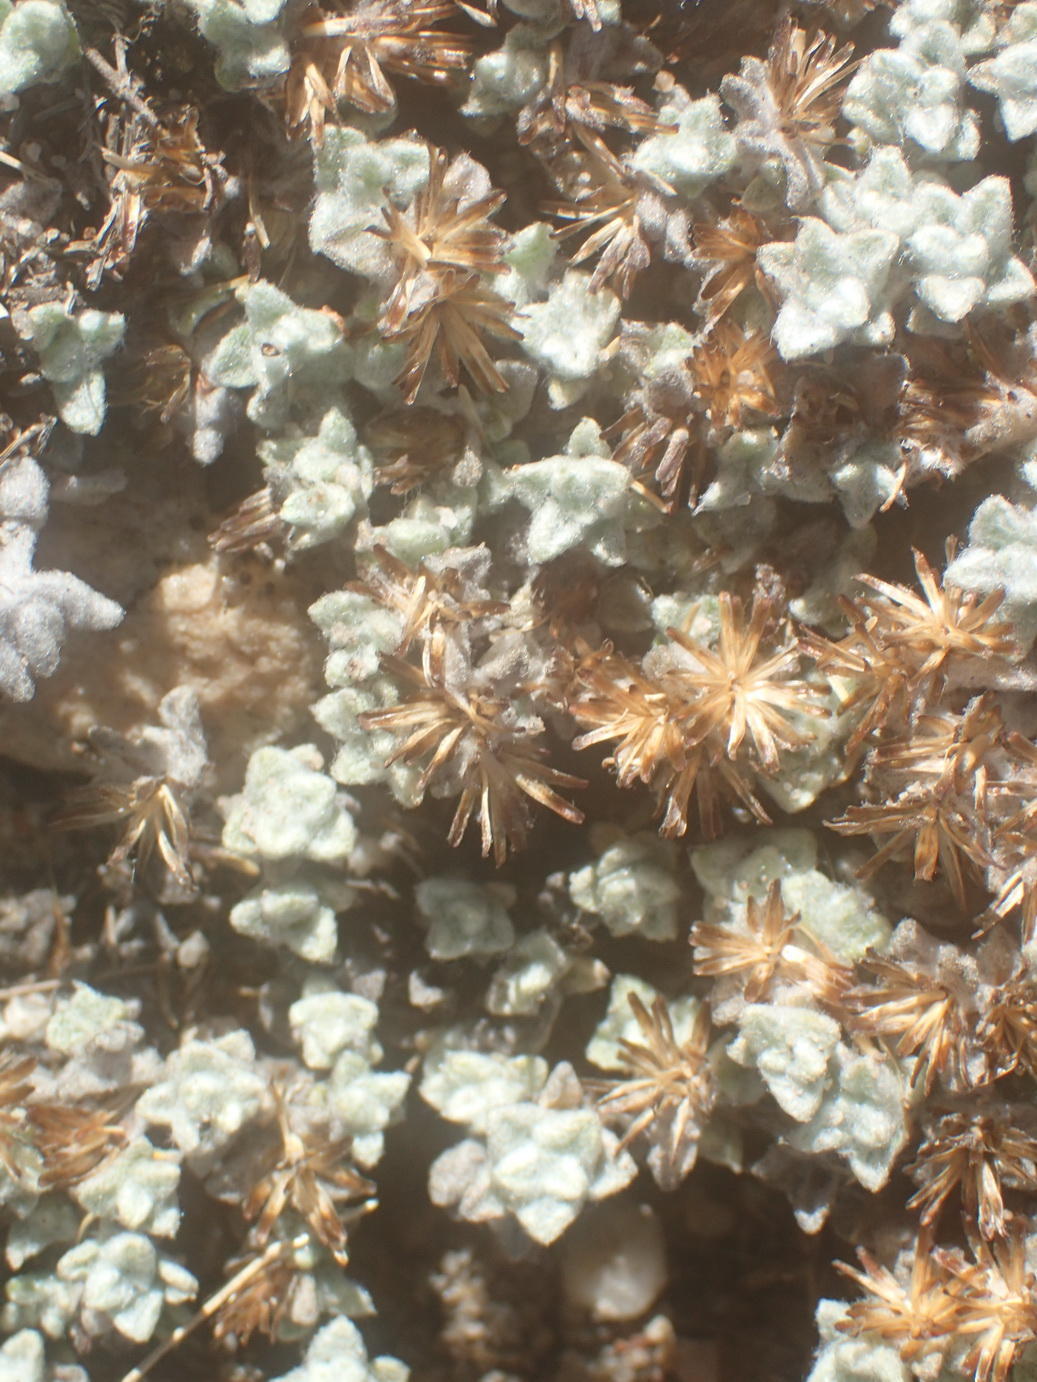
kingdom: Plantae
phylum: Tracheophyta
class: Magnoliopsida
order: Asterales
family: Asteraceae
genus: Helichrysum
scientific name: Helichrysum saxicola
